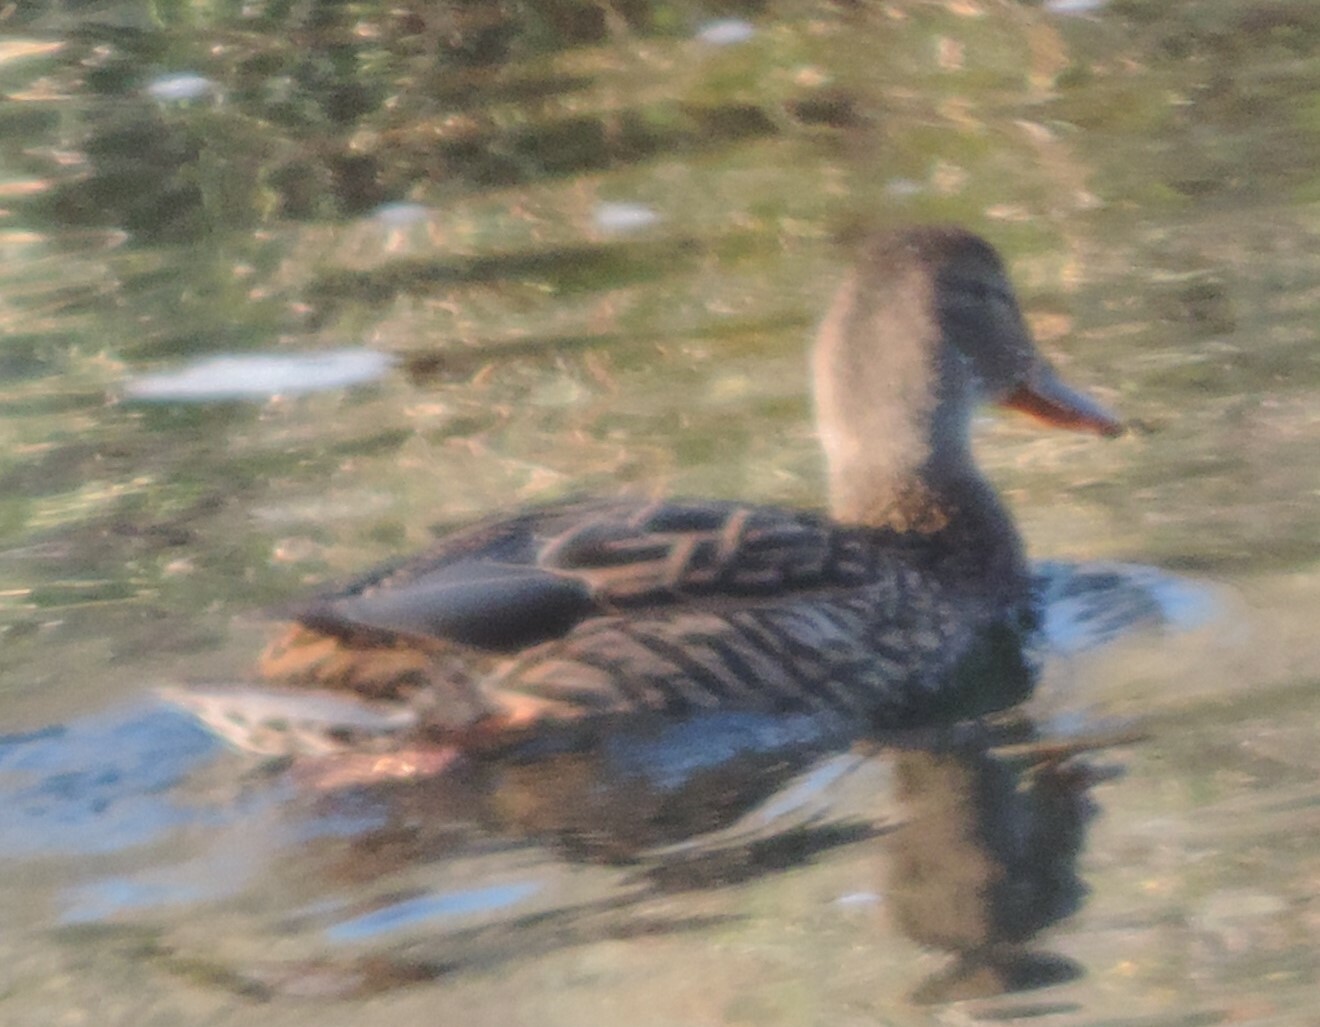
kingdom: Animalia
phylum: Chordata
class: Aves
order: Anseriformes
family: Anatidae
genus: Anas
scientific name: Anas platyrhynchos
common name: Mallard
